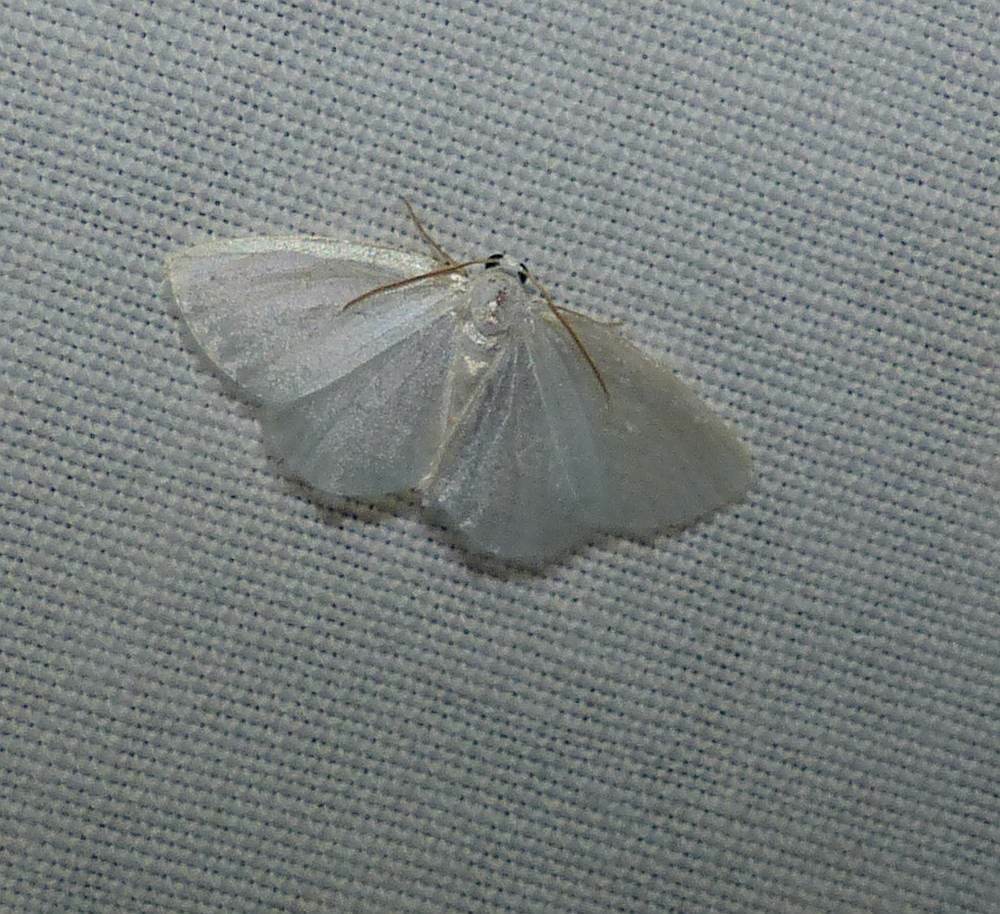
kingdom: Animalia
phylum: Arthropoda
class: Insecta
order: Lepidoptera
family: Geometridae
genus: Lomographa
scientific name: Lomographa vestaliata
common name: White spring moth
